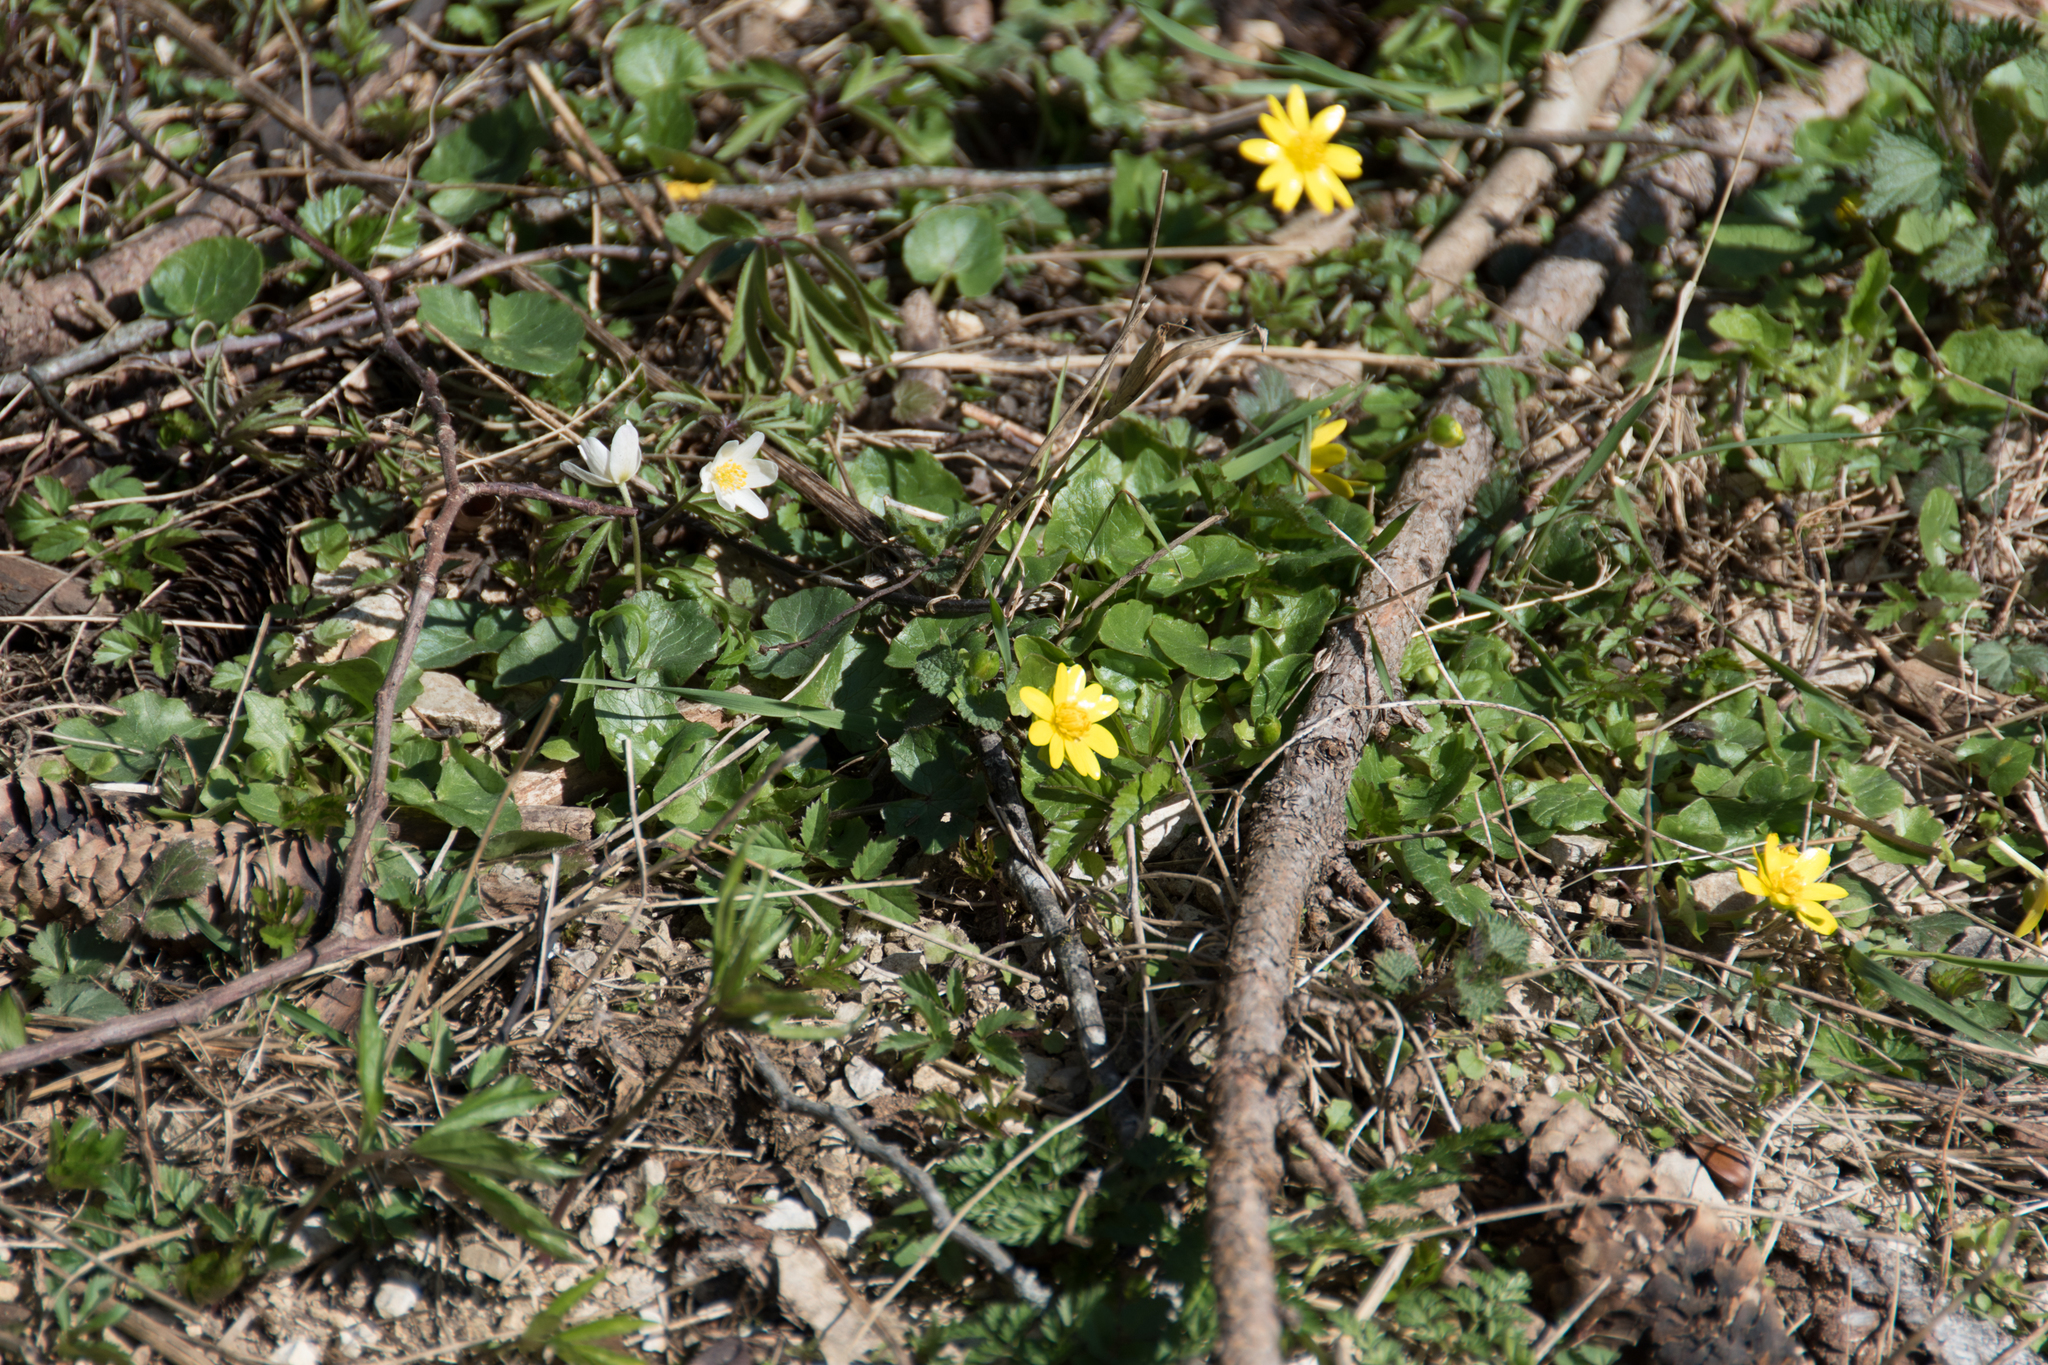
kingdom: Plantae
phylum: Tracheophyta
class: Magnoliopsida
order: Ranunculales
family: Ranunculaceae
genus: Ficaria
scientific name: Ficaria verna
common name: Lesser celandine
